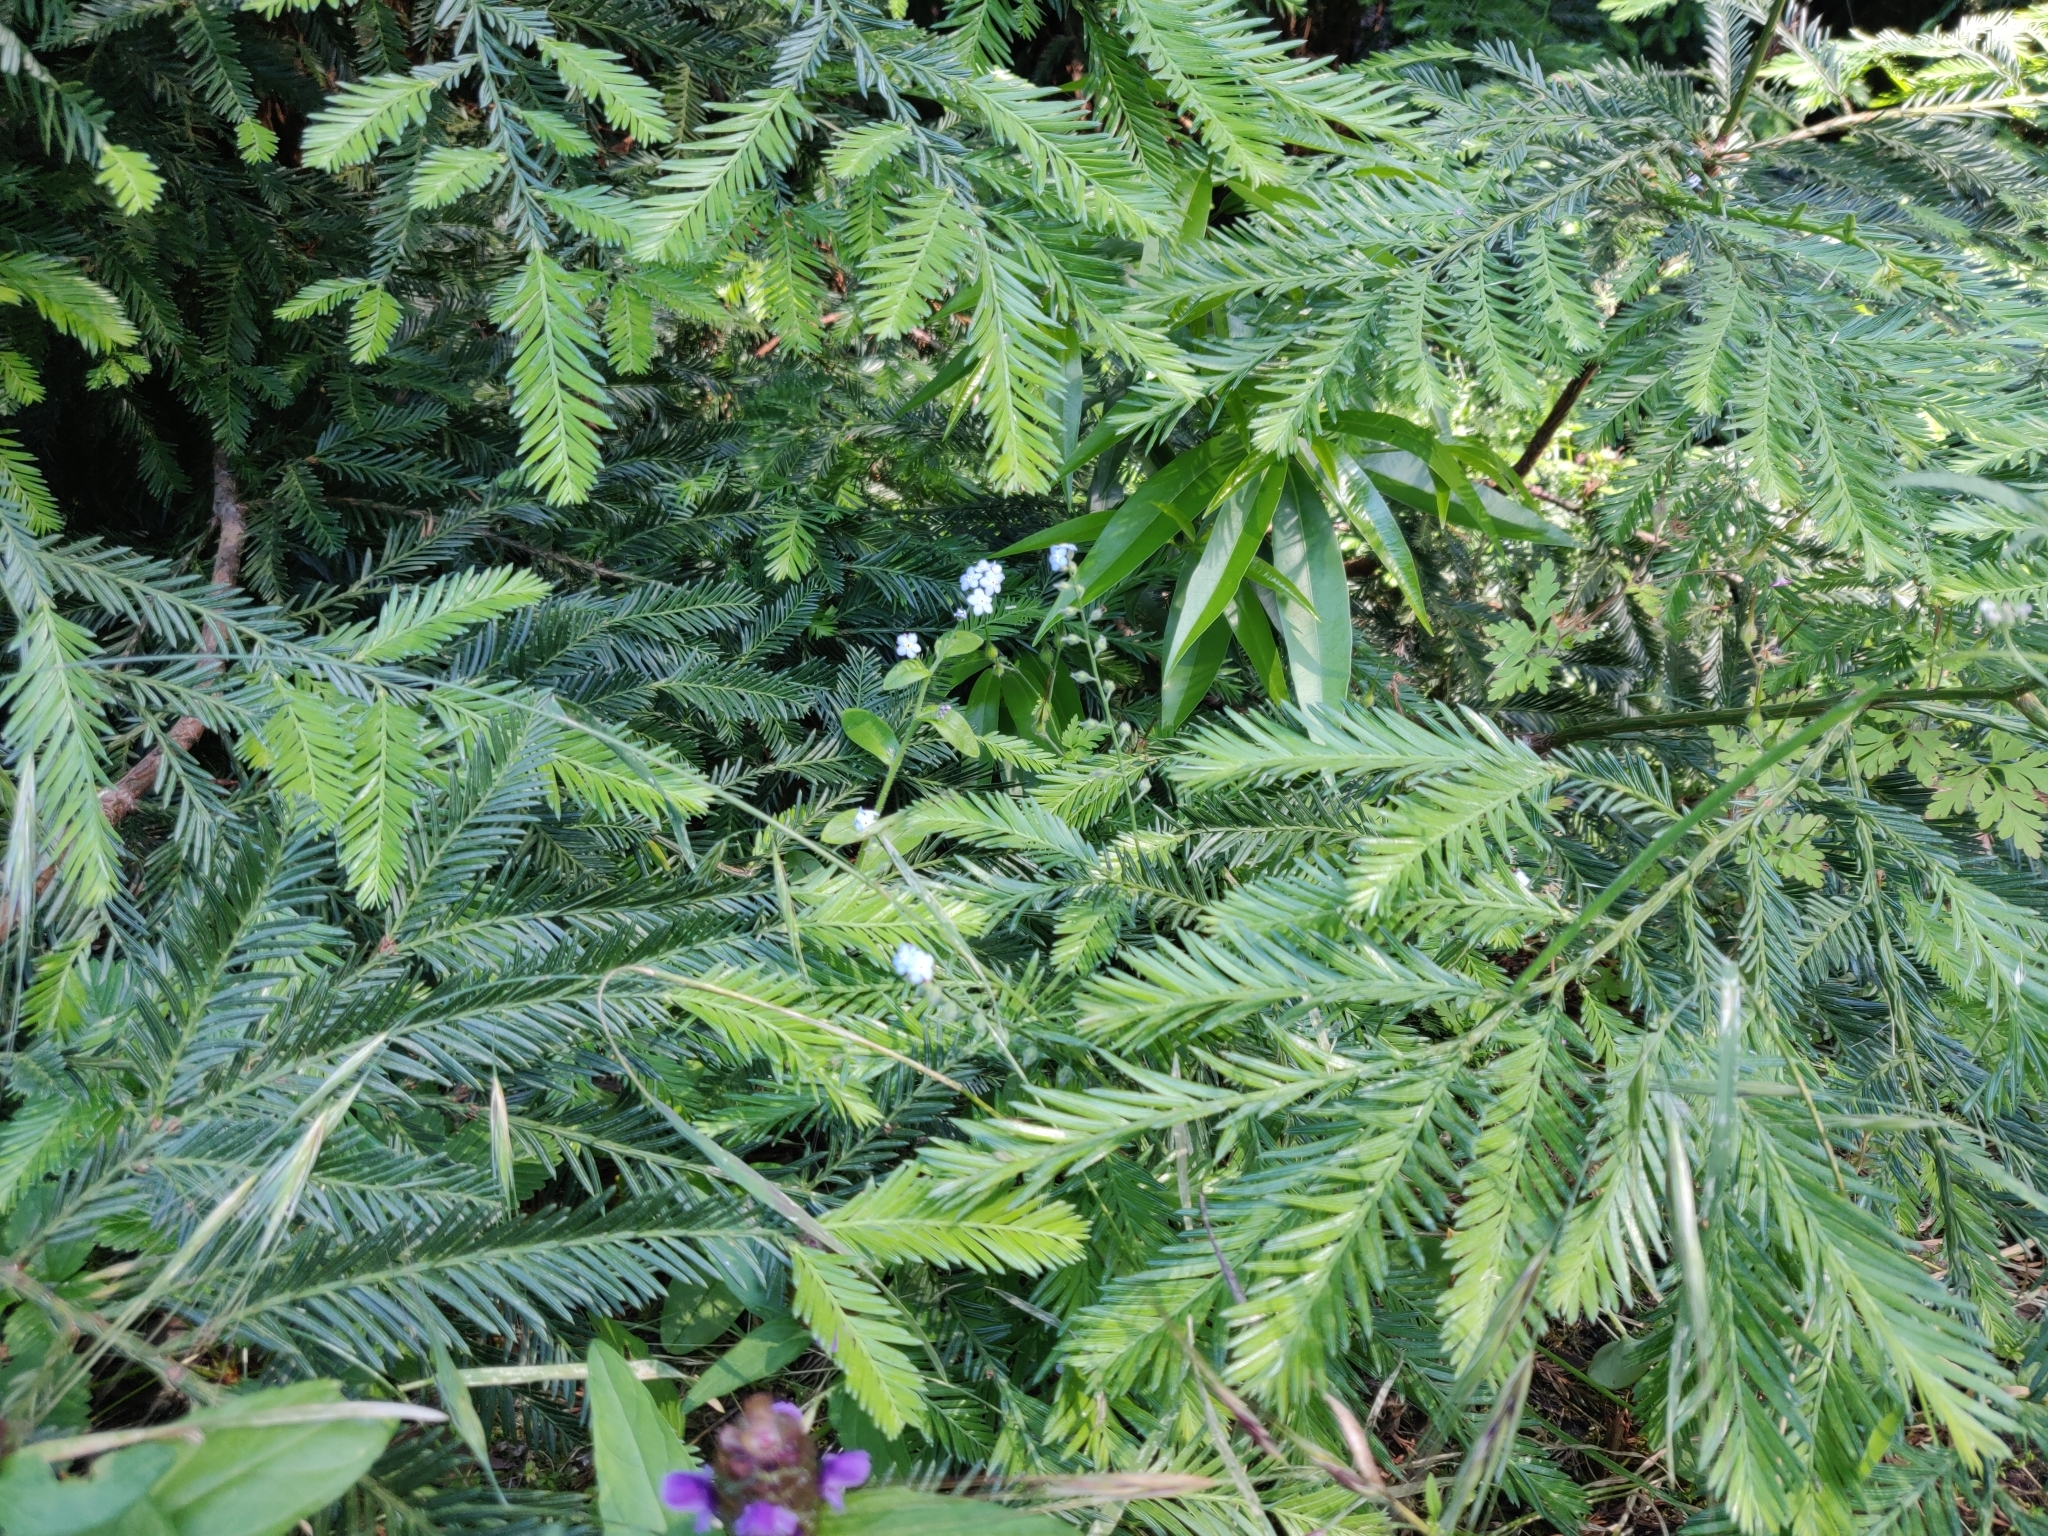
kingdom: Plantae
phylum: Tracheophyta
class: Magnoliopsida
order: Boraginales
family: Boraginaceae
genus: Myosotis
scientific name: Myosotis latifolia
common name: Broadleaf forget-me-not
